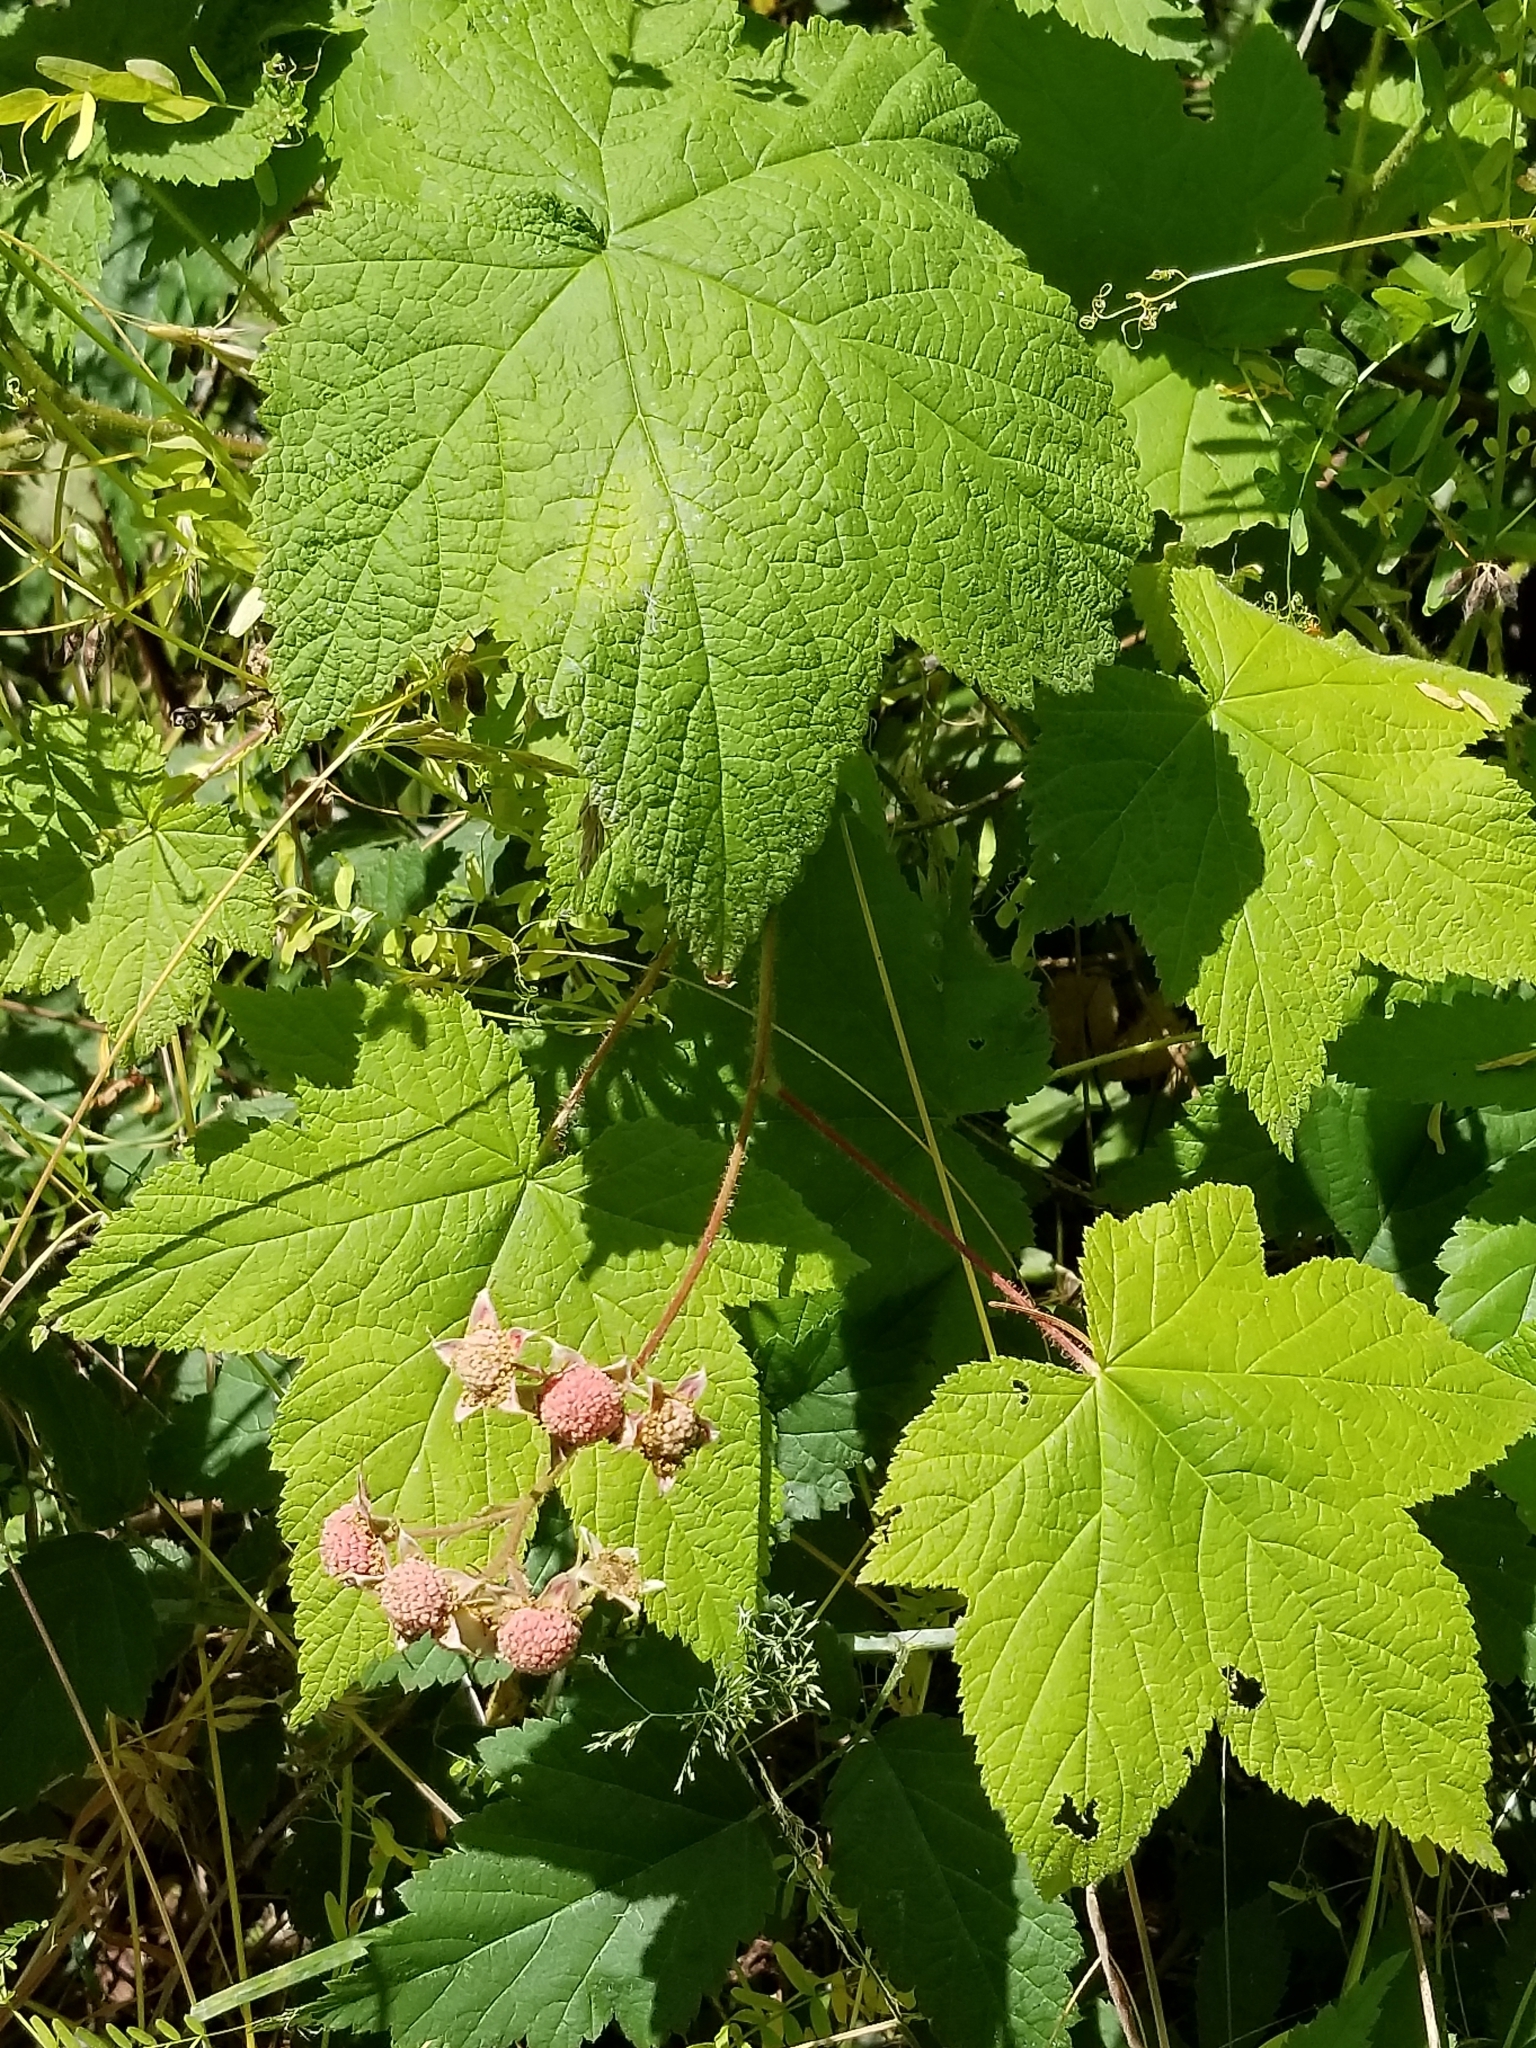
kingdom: Plantae
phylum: Tracheophyta
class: Magnoliopsida
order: Rosales
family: Rosaceae
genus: Rubus
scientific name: Rubus parviflorus
